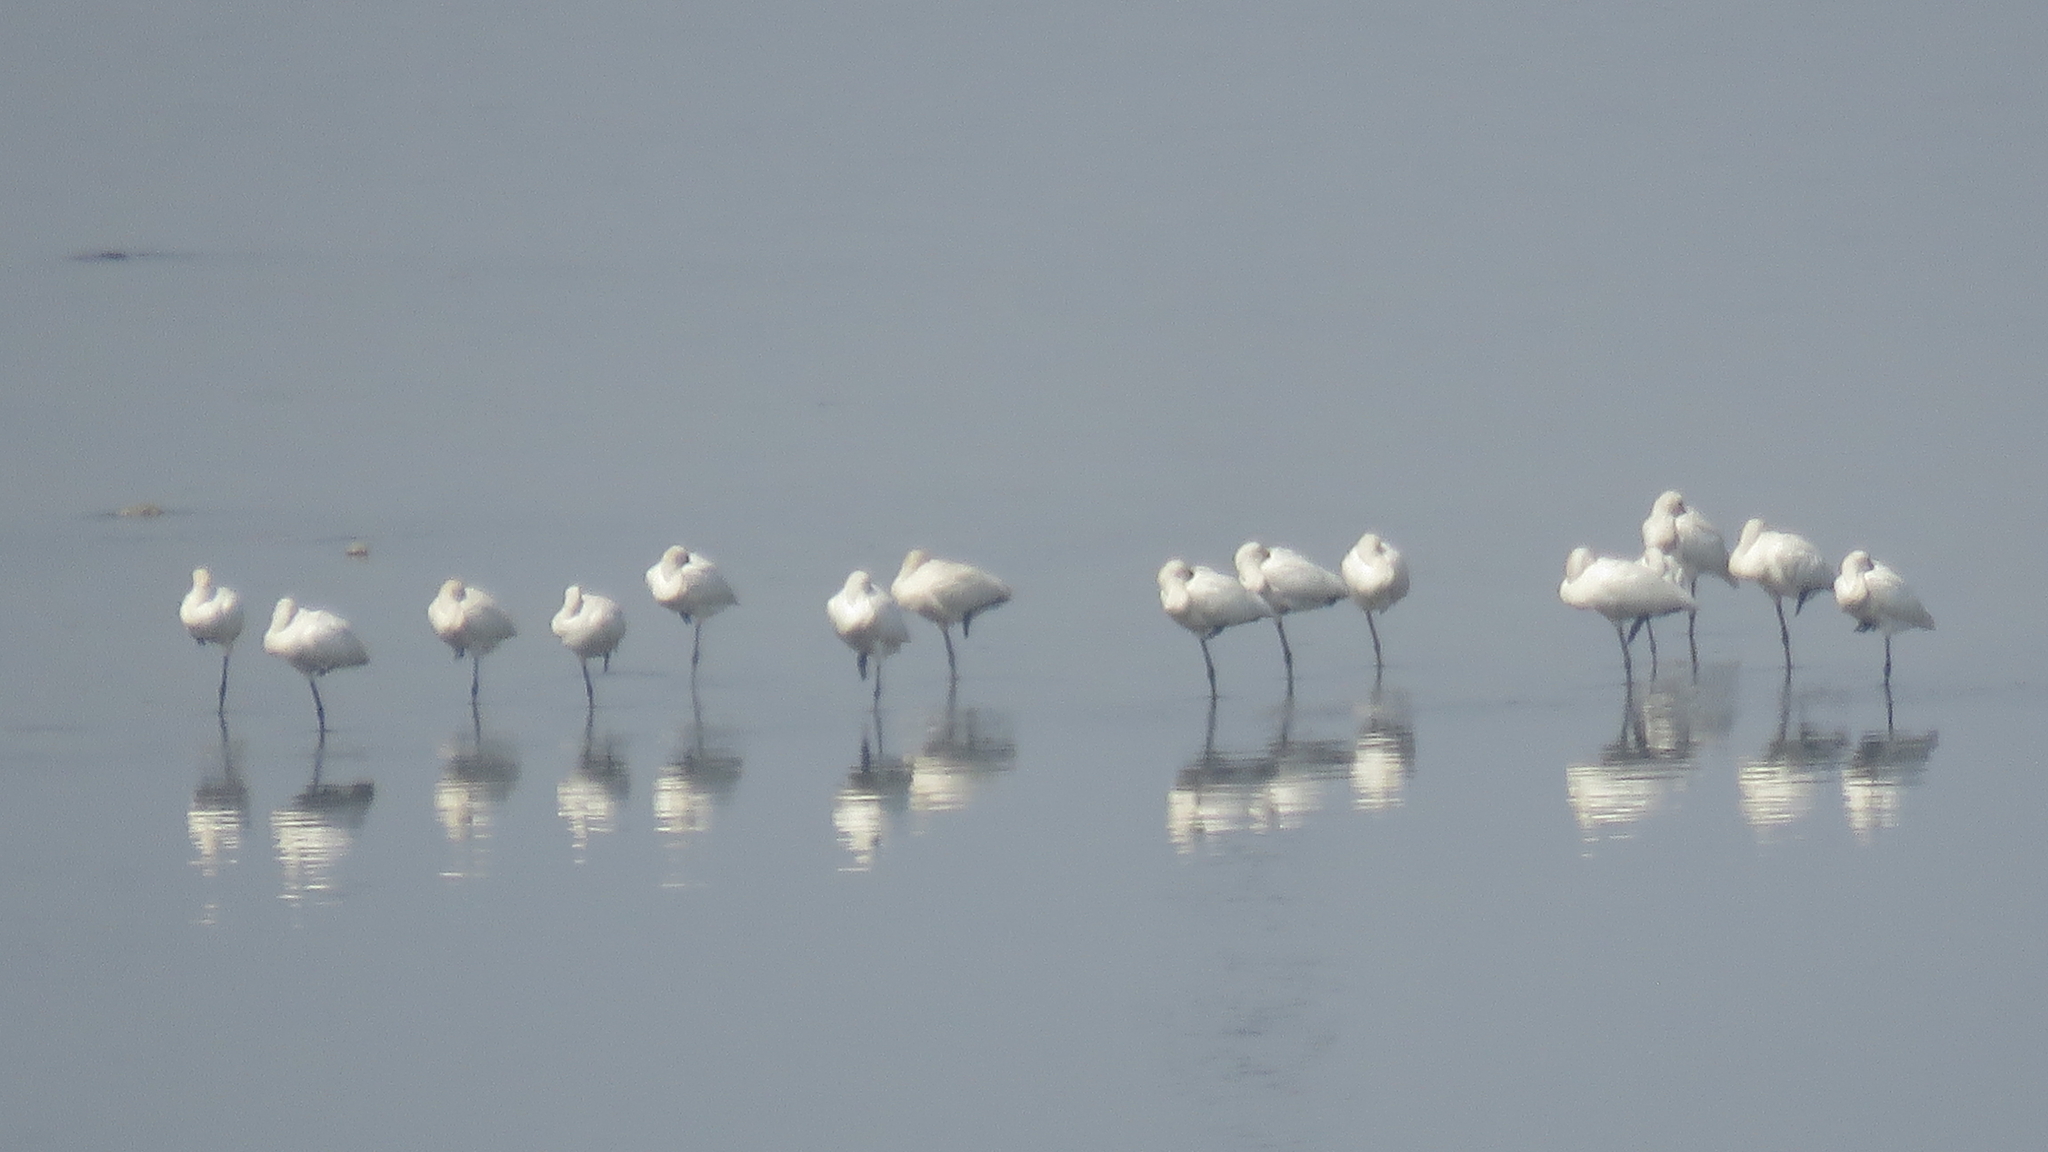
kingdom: Animalia
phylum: Chordata
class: Aves
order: Pelecaniformes
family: Threskiornithidae
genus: Platalea
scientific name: Platalea leucorodia
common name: Eurasian spoonbill
